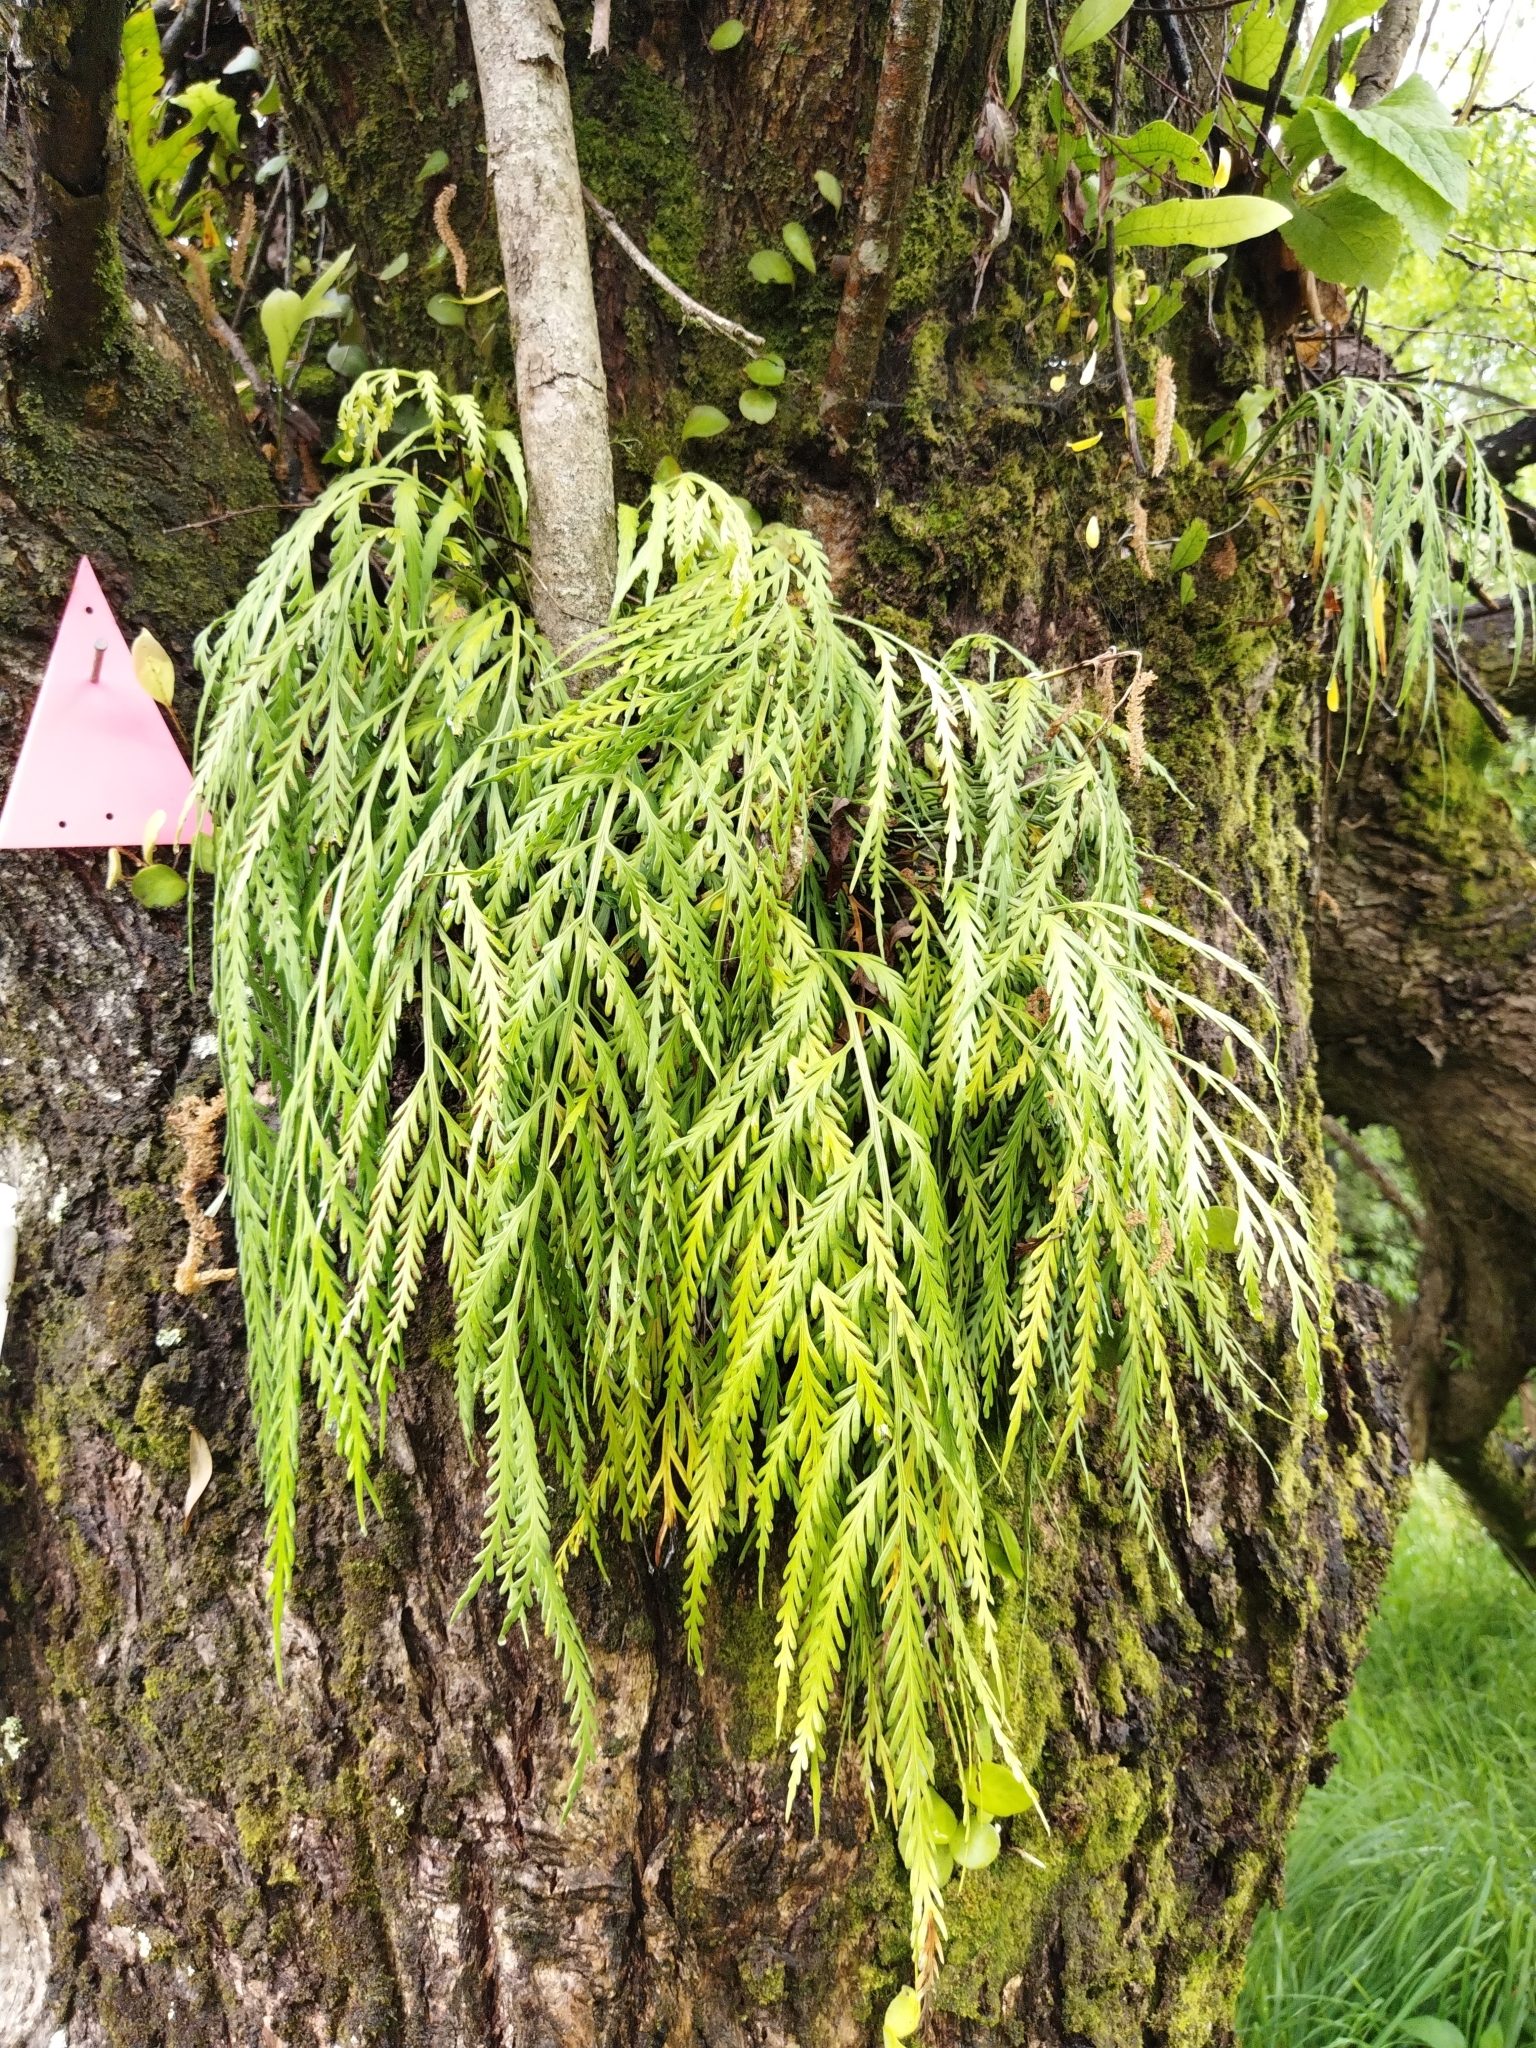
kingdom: Plantae
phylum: Tracheophyta
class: Polypodiopsida
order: Polypodiales
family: Aspleniaceae
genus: Asplenium
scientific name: Asplenium flaccidum
